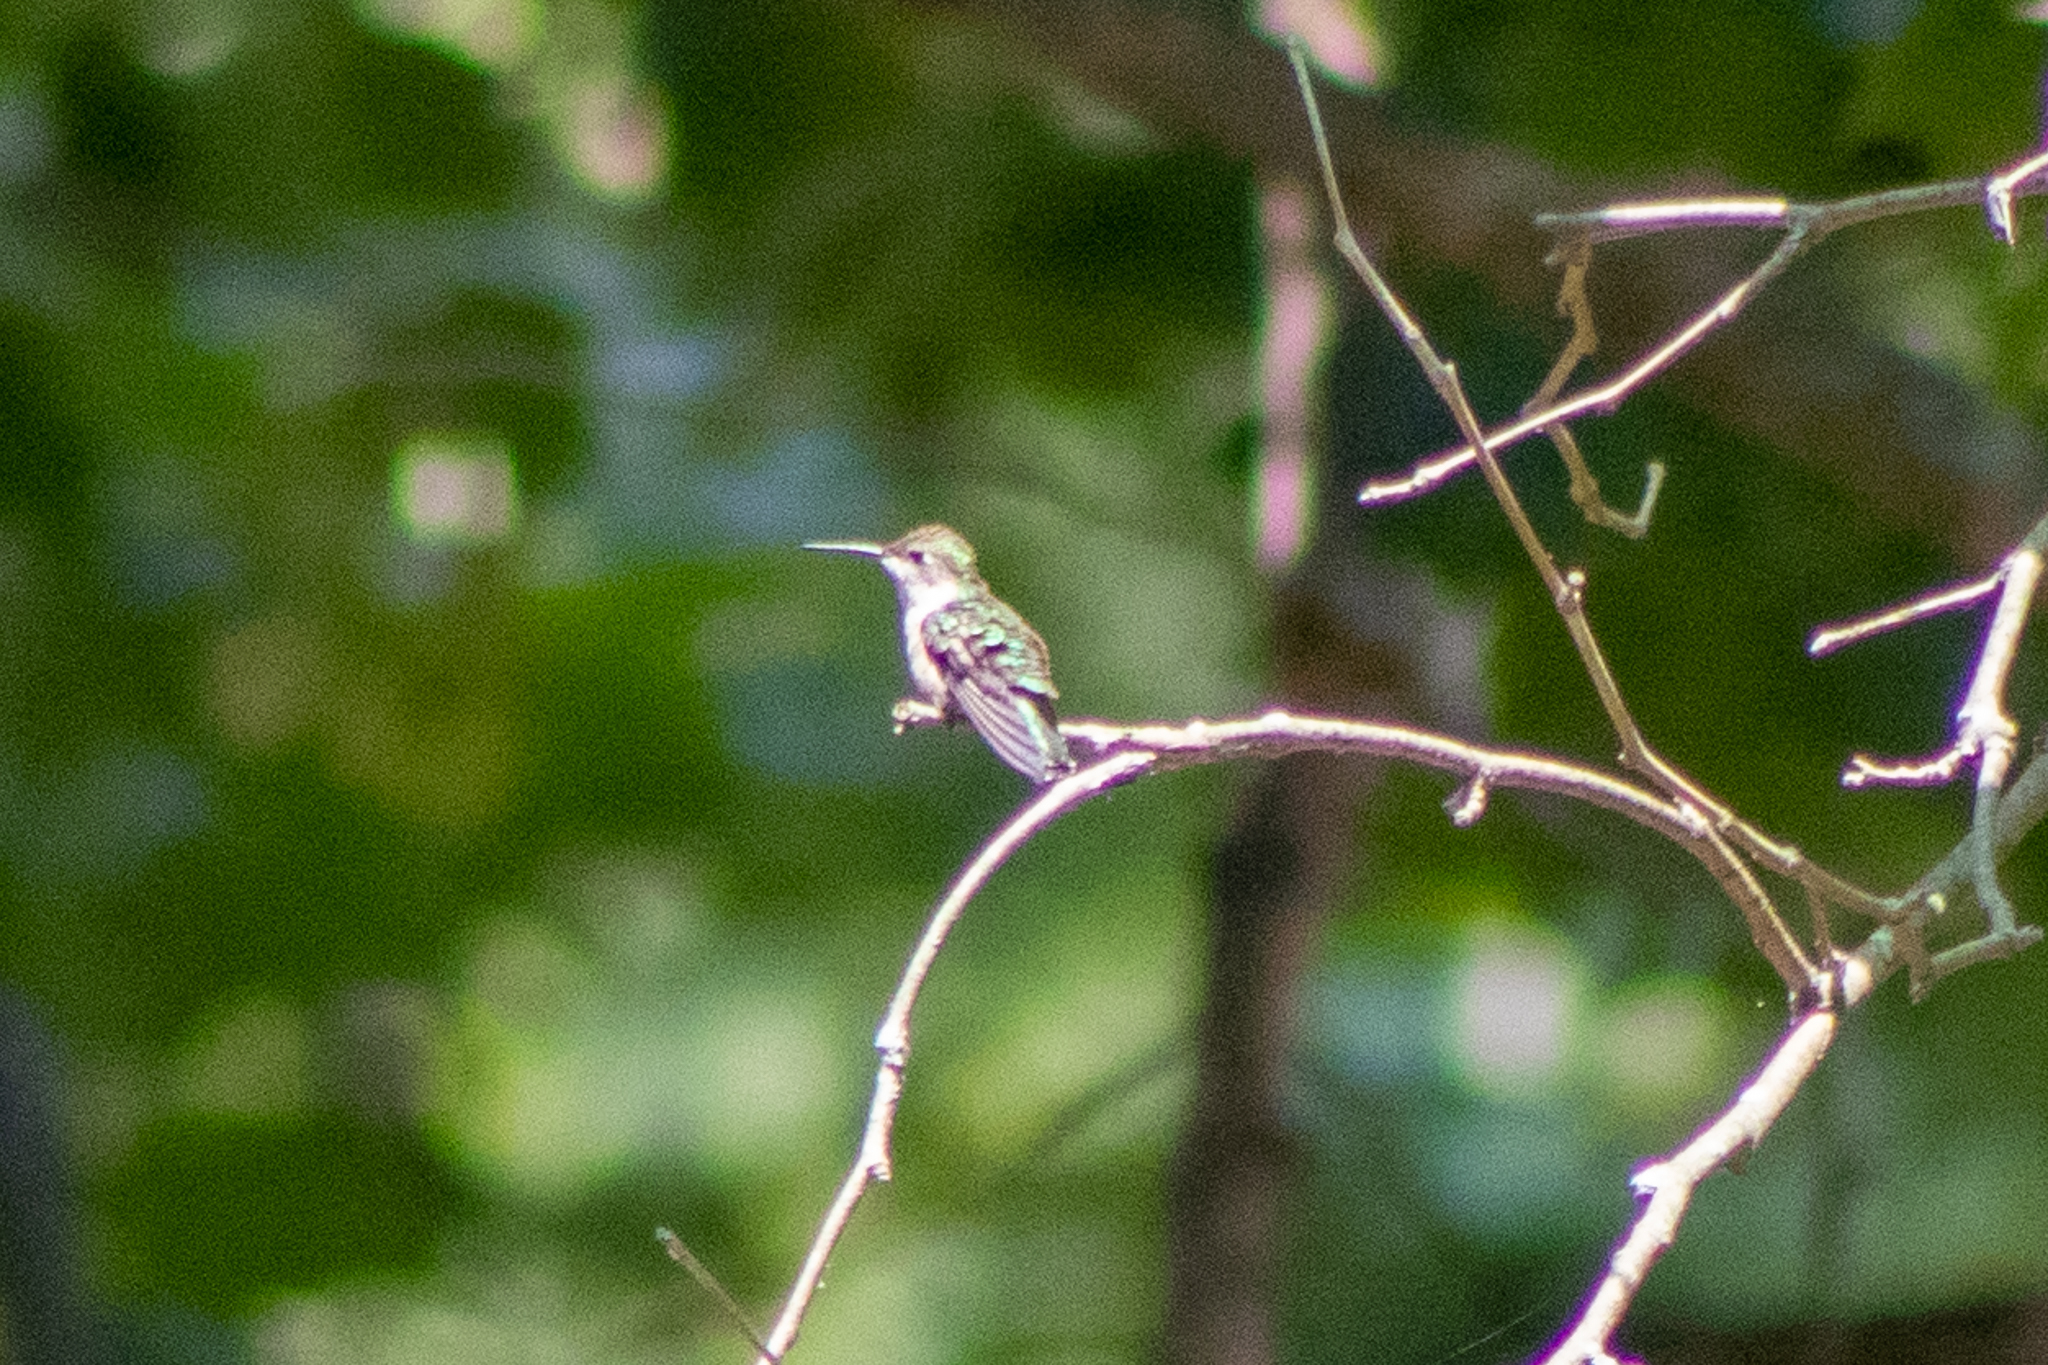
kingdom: Animalia
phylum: Chordata
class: Aves
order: Apodiformes
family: Trochilidae
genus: Archilochus
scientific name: Archilochus colubris
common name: Ruby-throated hummingbird
